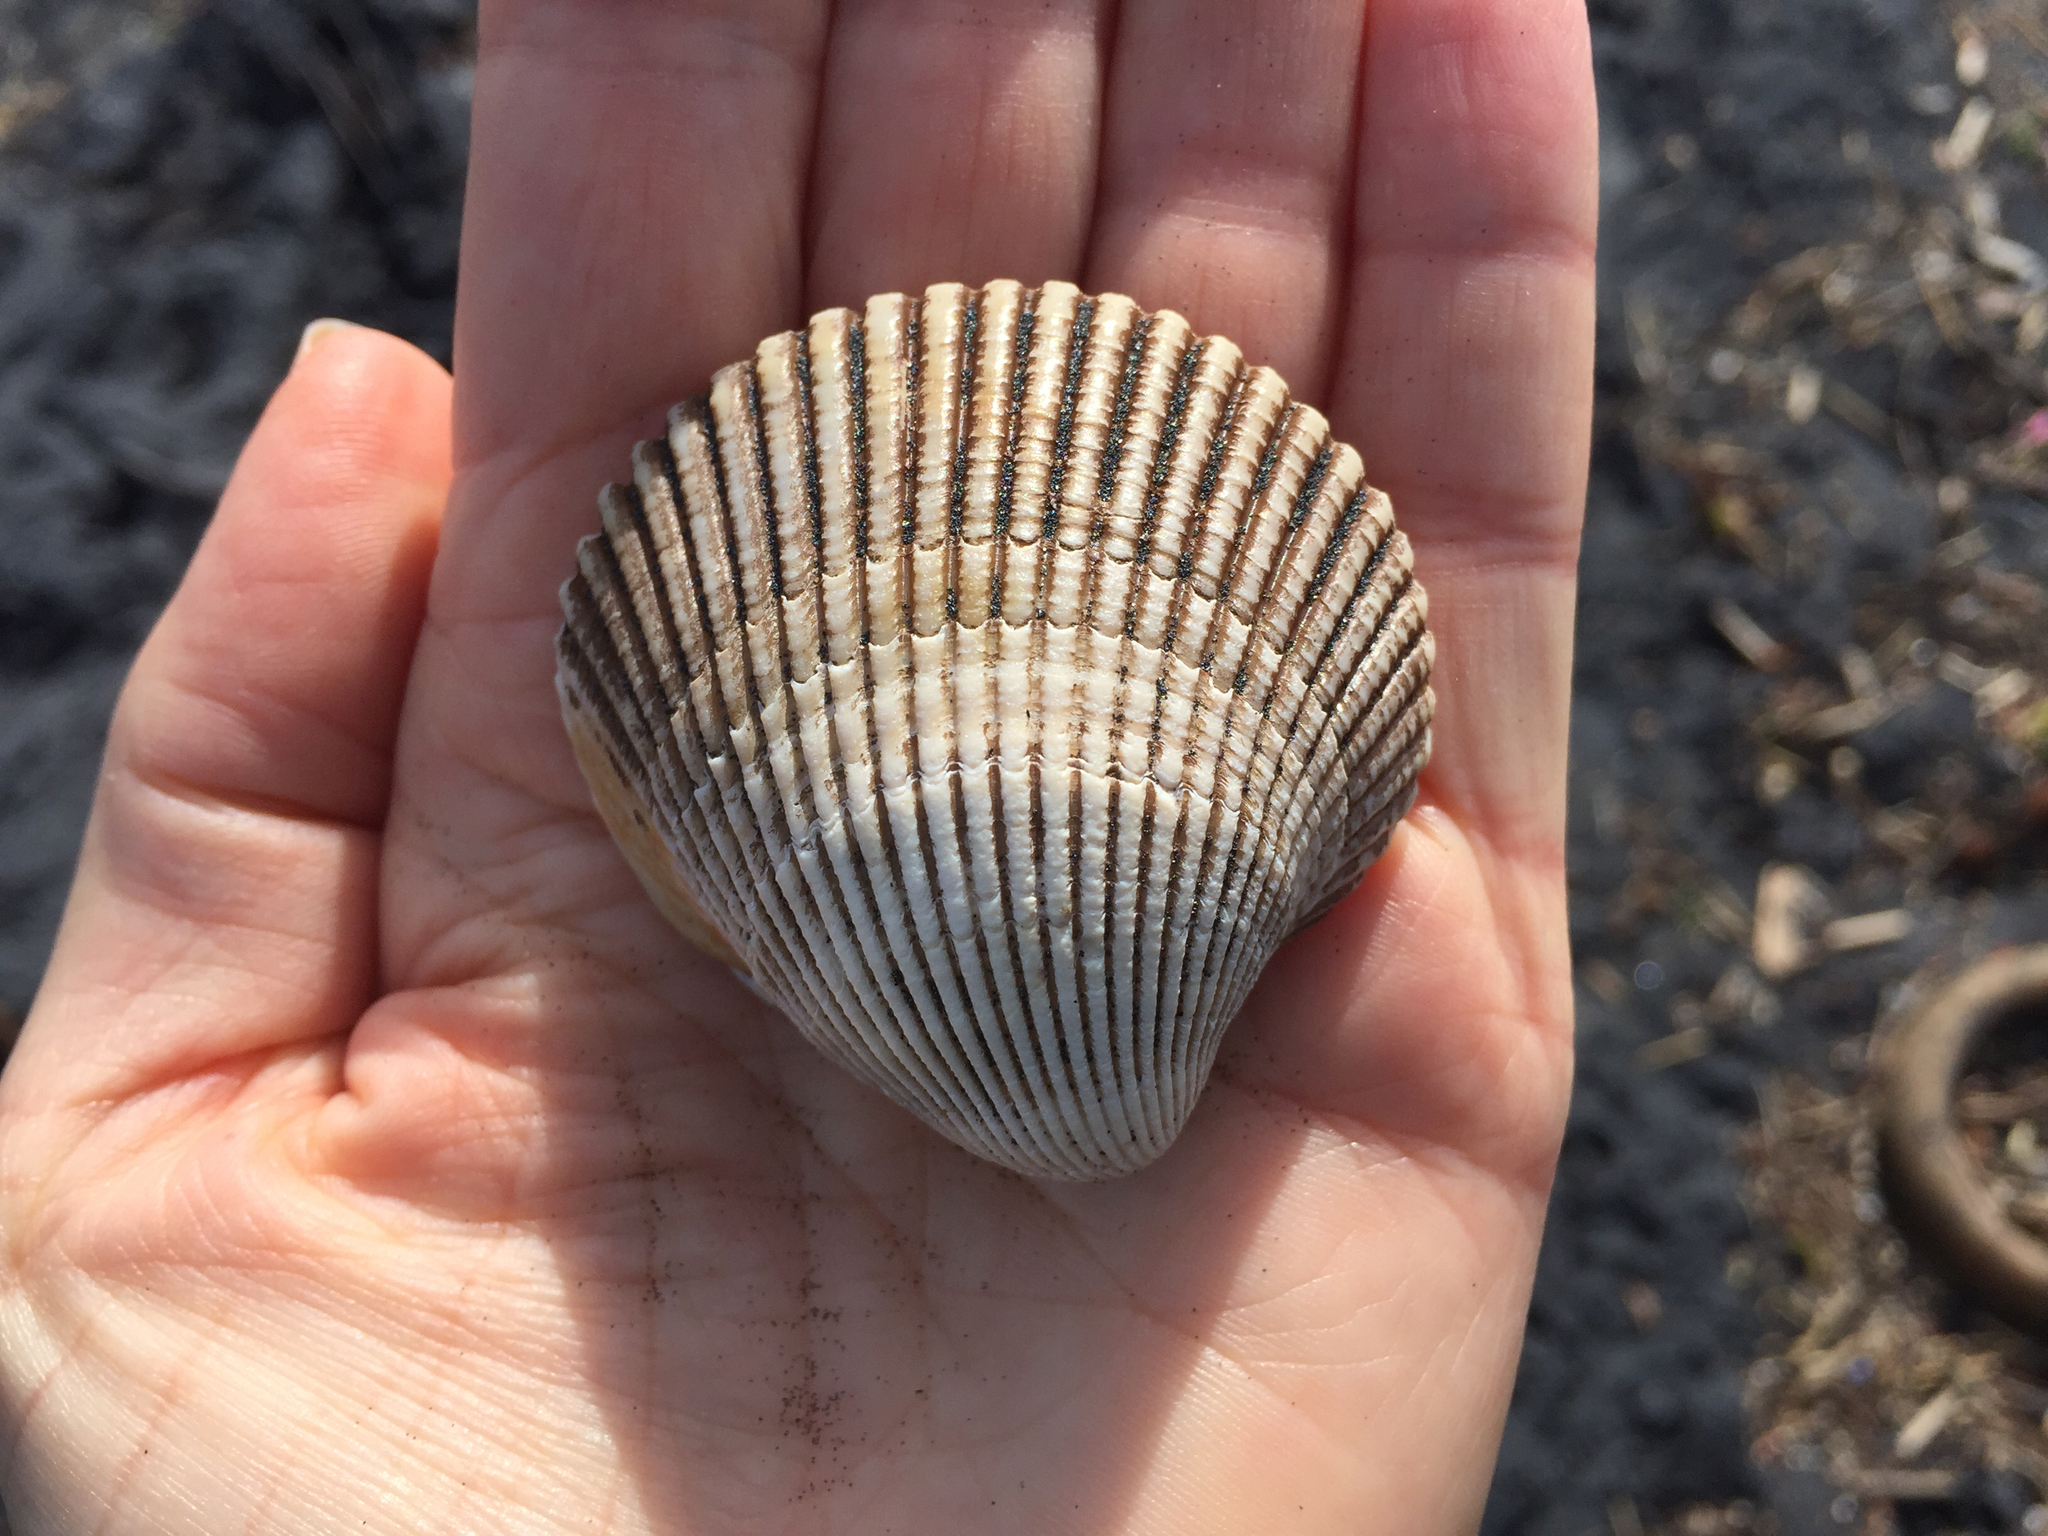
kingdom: Animalia
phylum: Mollusca
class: Bivalvia
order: Cardiida
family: Cardiidae
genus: Clinocardium
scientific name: Clinocardium nuttallii
